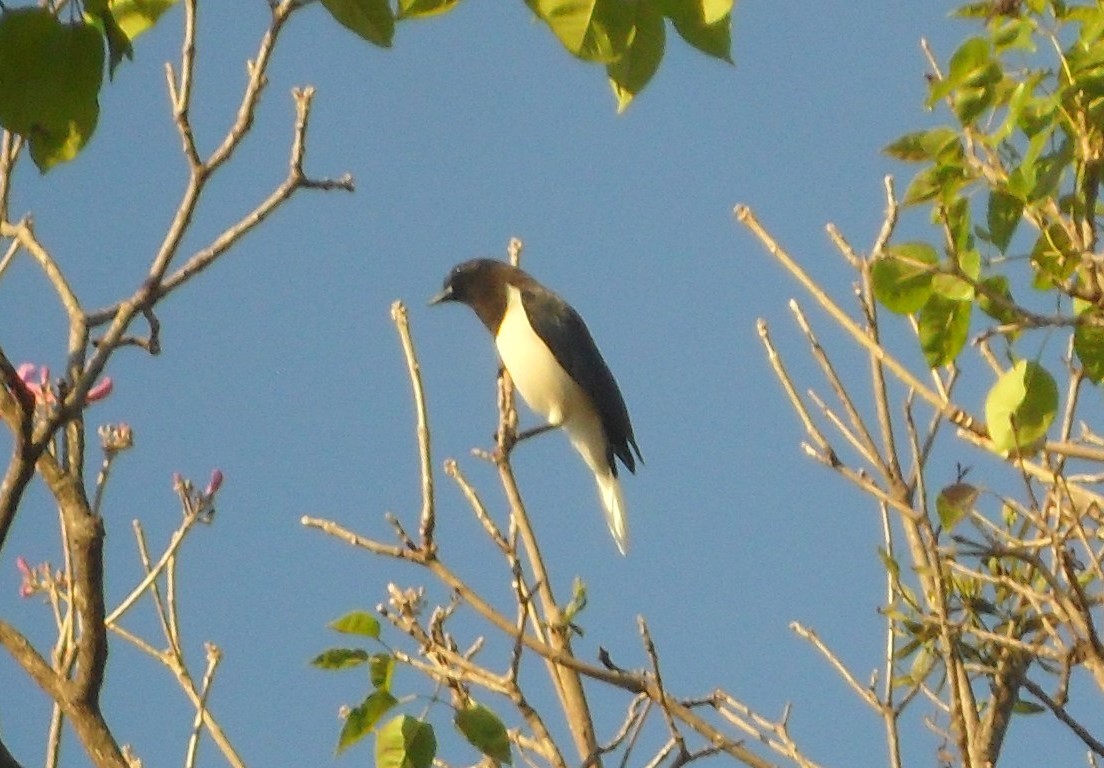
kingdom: Animalia
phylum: Chordata
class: Aves
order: Passeriformes
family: Corvidae
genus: Cyanocorax
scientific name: Cyanocorax cristatellus
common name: Curl-crested jay
